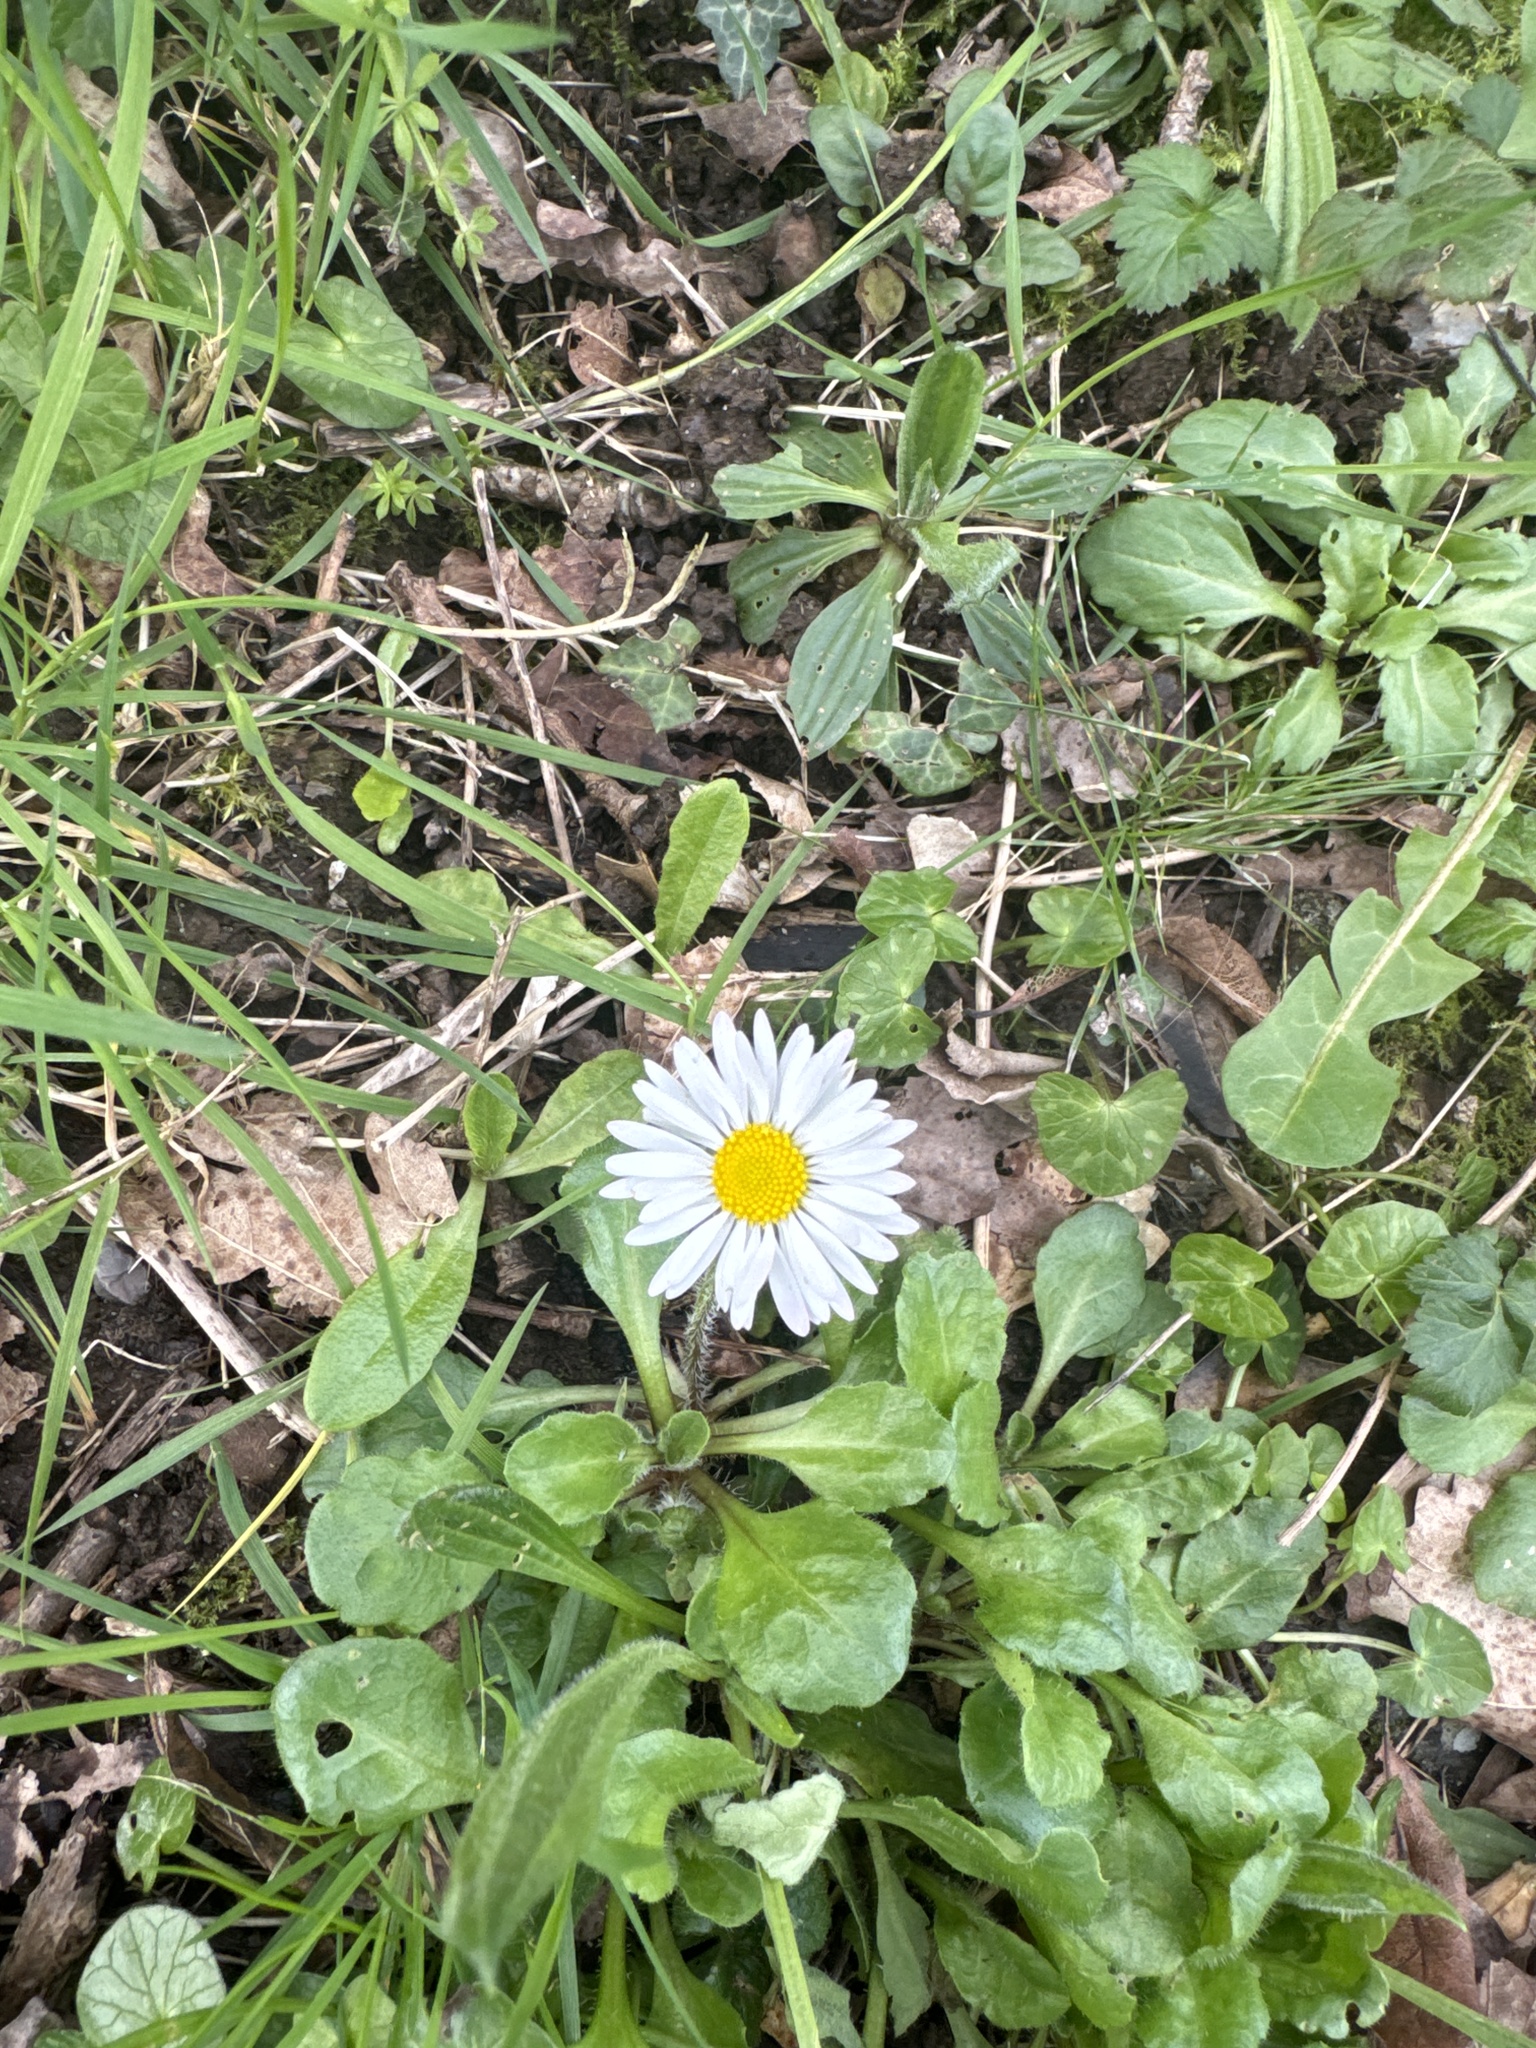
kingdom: Plantae
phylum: Tracheophyta
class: Magnoliopsida
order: Asterales
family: Asteraceae
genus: Bellis
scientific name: Bellis perennis
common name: Lawndaisy
